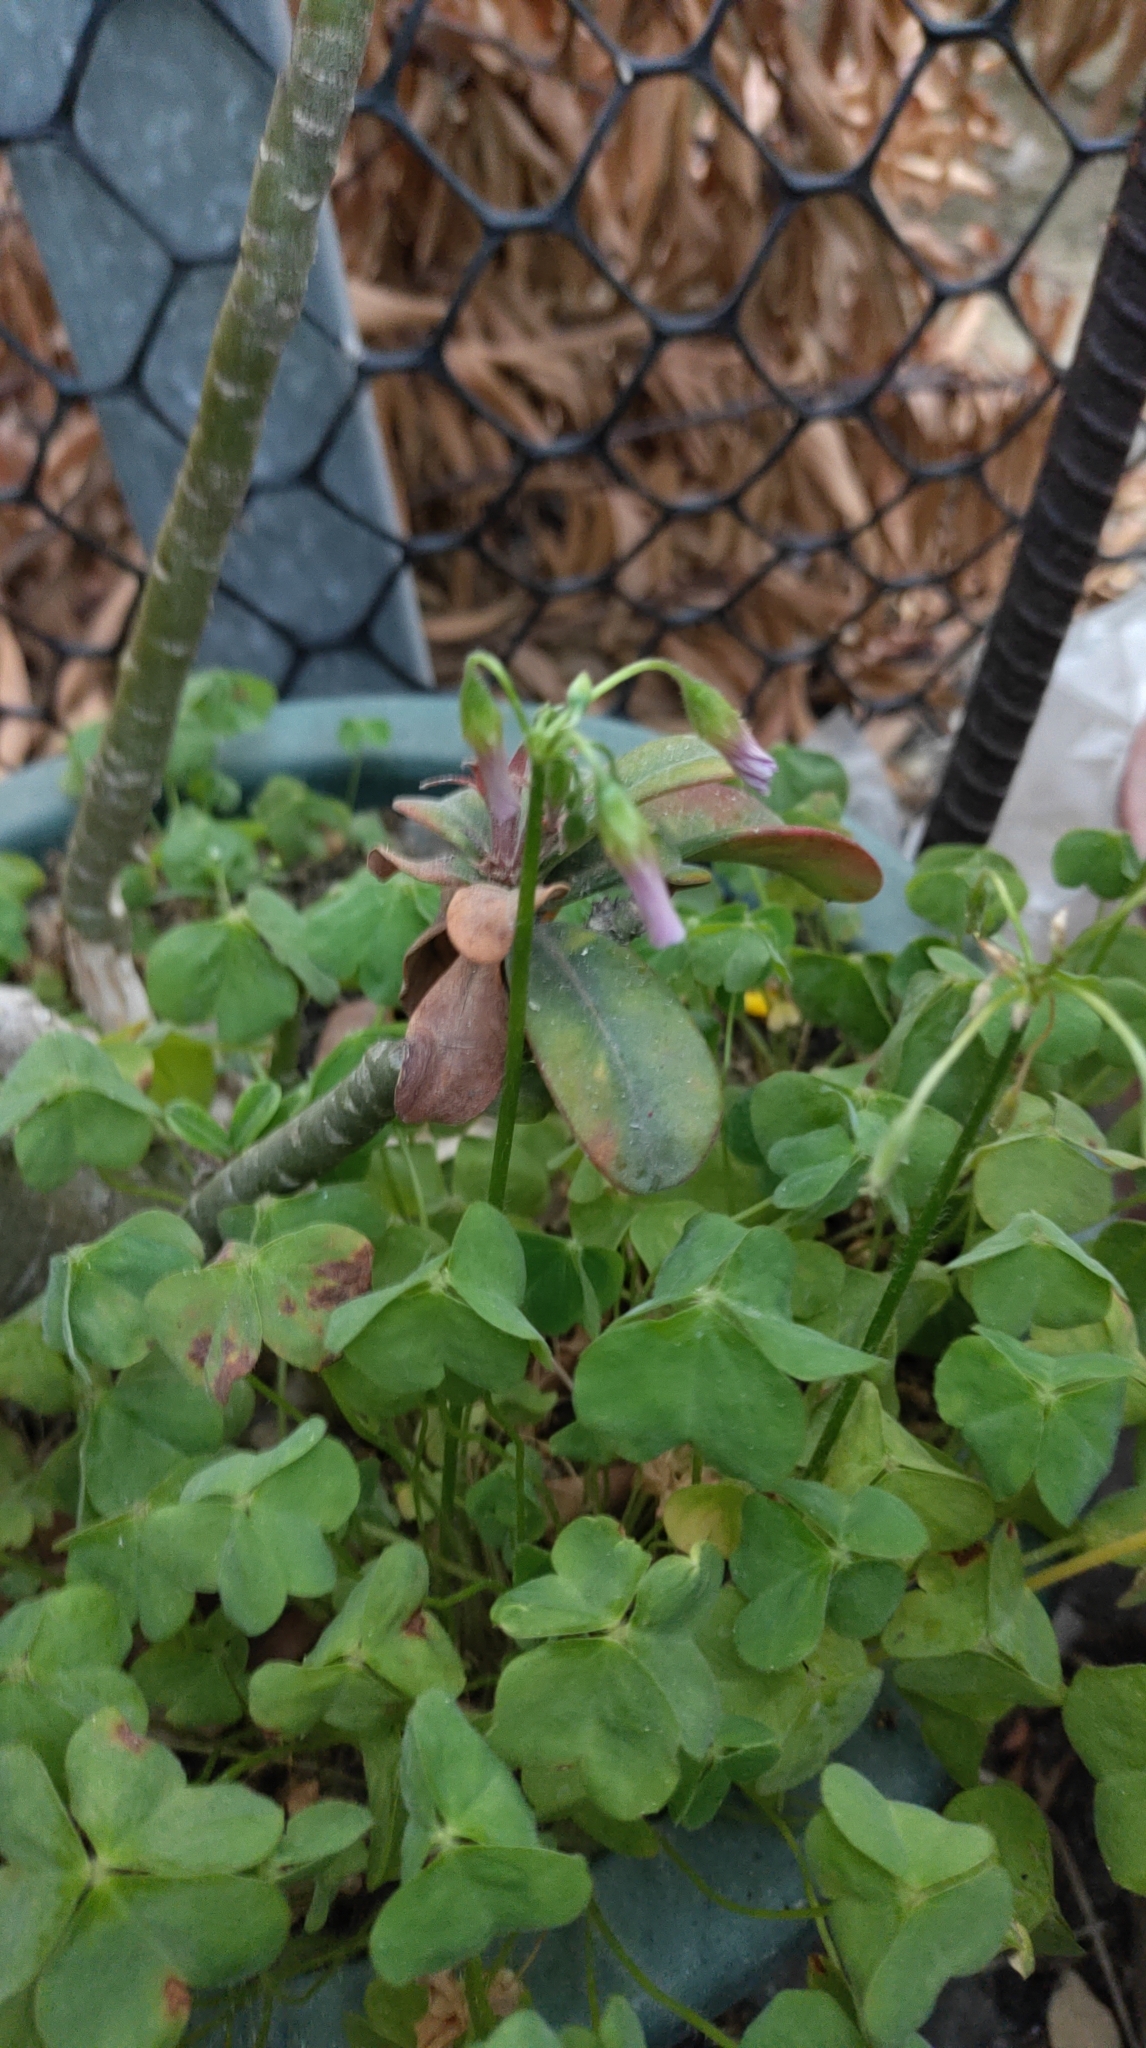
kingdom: Plantae
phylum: Tracheophyta
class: Magnoliopsida
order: Oxalidales
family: Oxalidaceae
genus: Oxalis
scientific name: Oxalis debilis
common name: Large-flowered pink-sorrel
